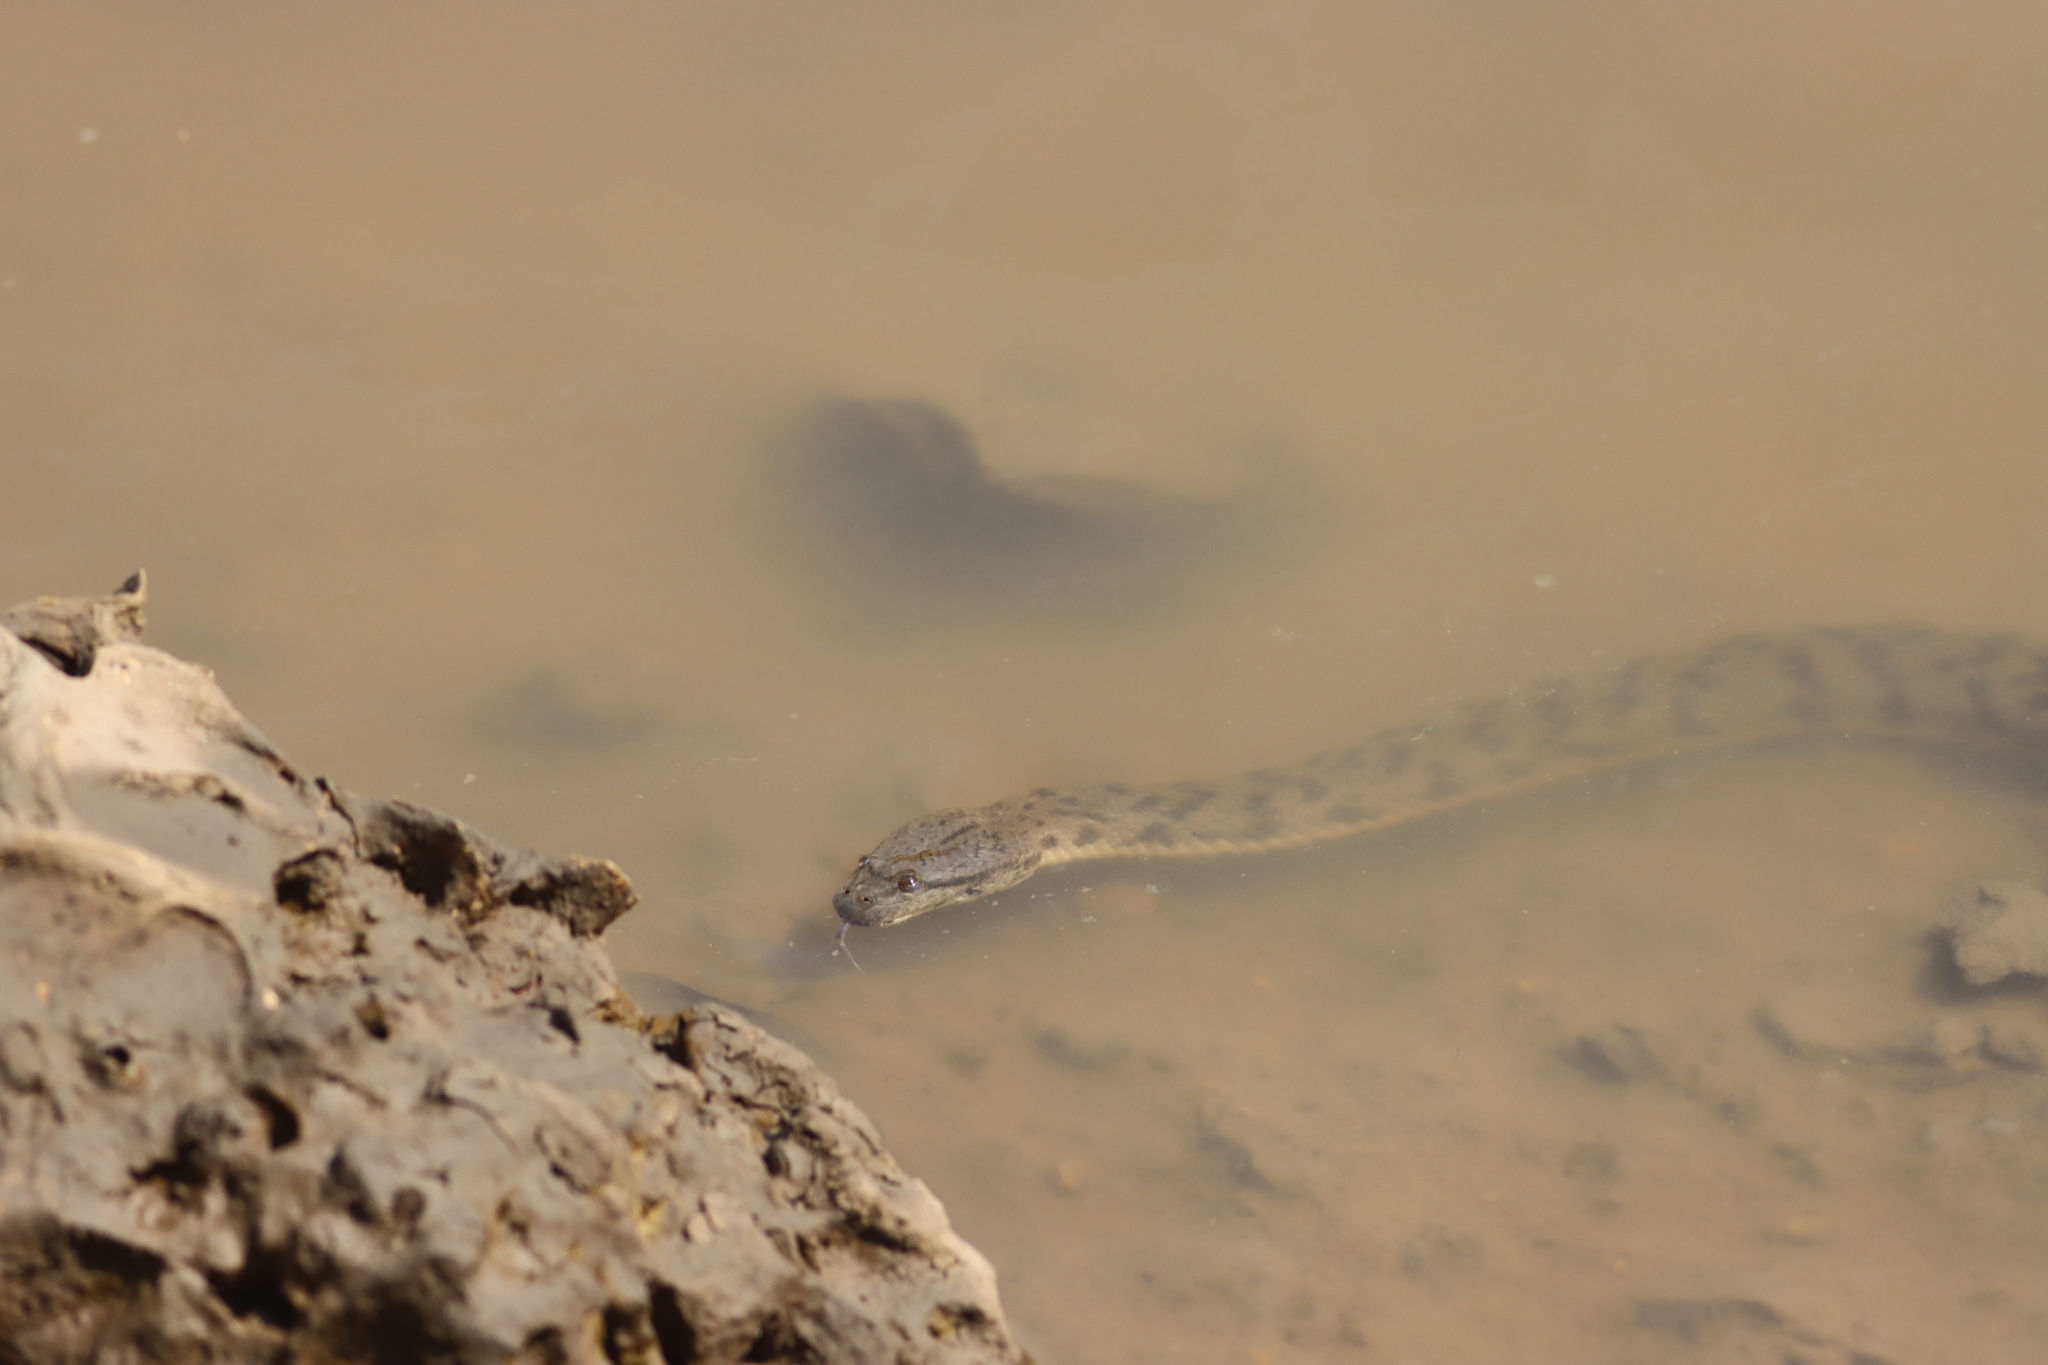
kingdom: Animalia
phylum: Chordata
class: Squamata
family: Homalopsidae
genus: Cerberus
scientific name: Cerberus schneiderii
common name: Southeast asian bockadam
